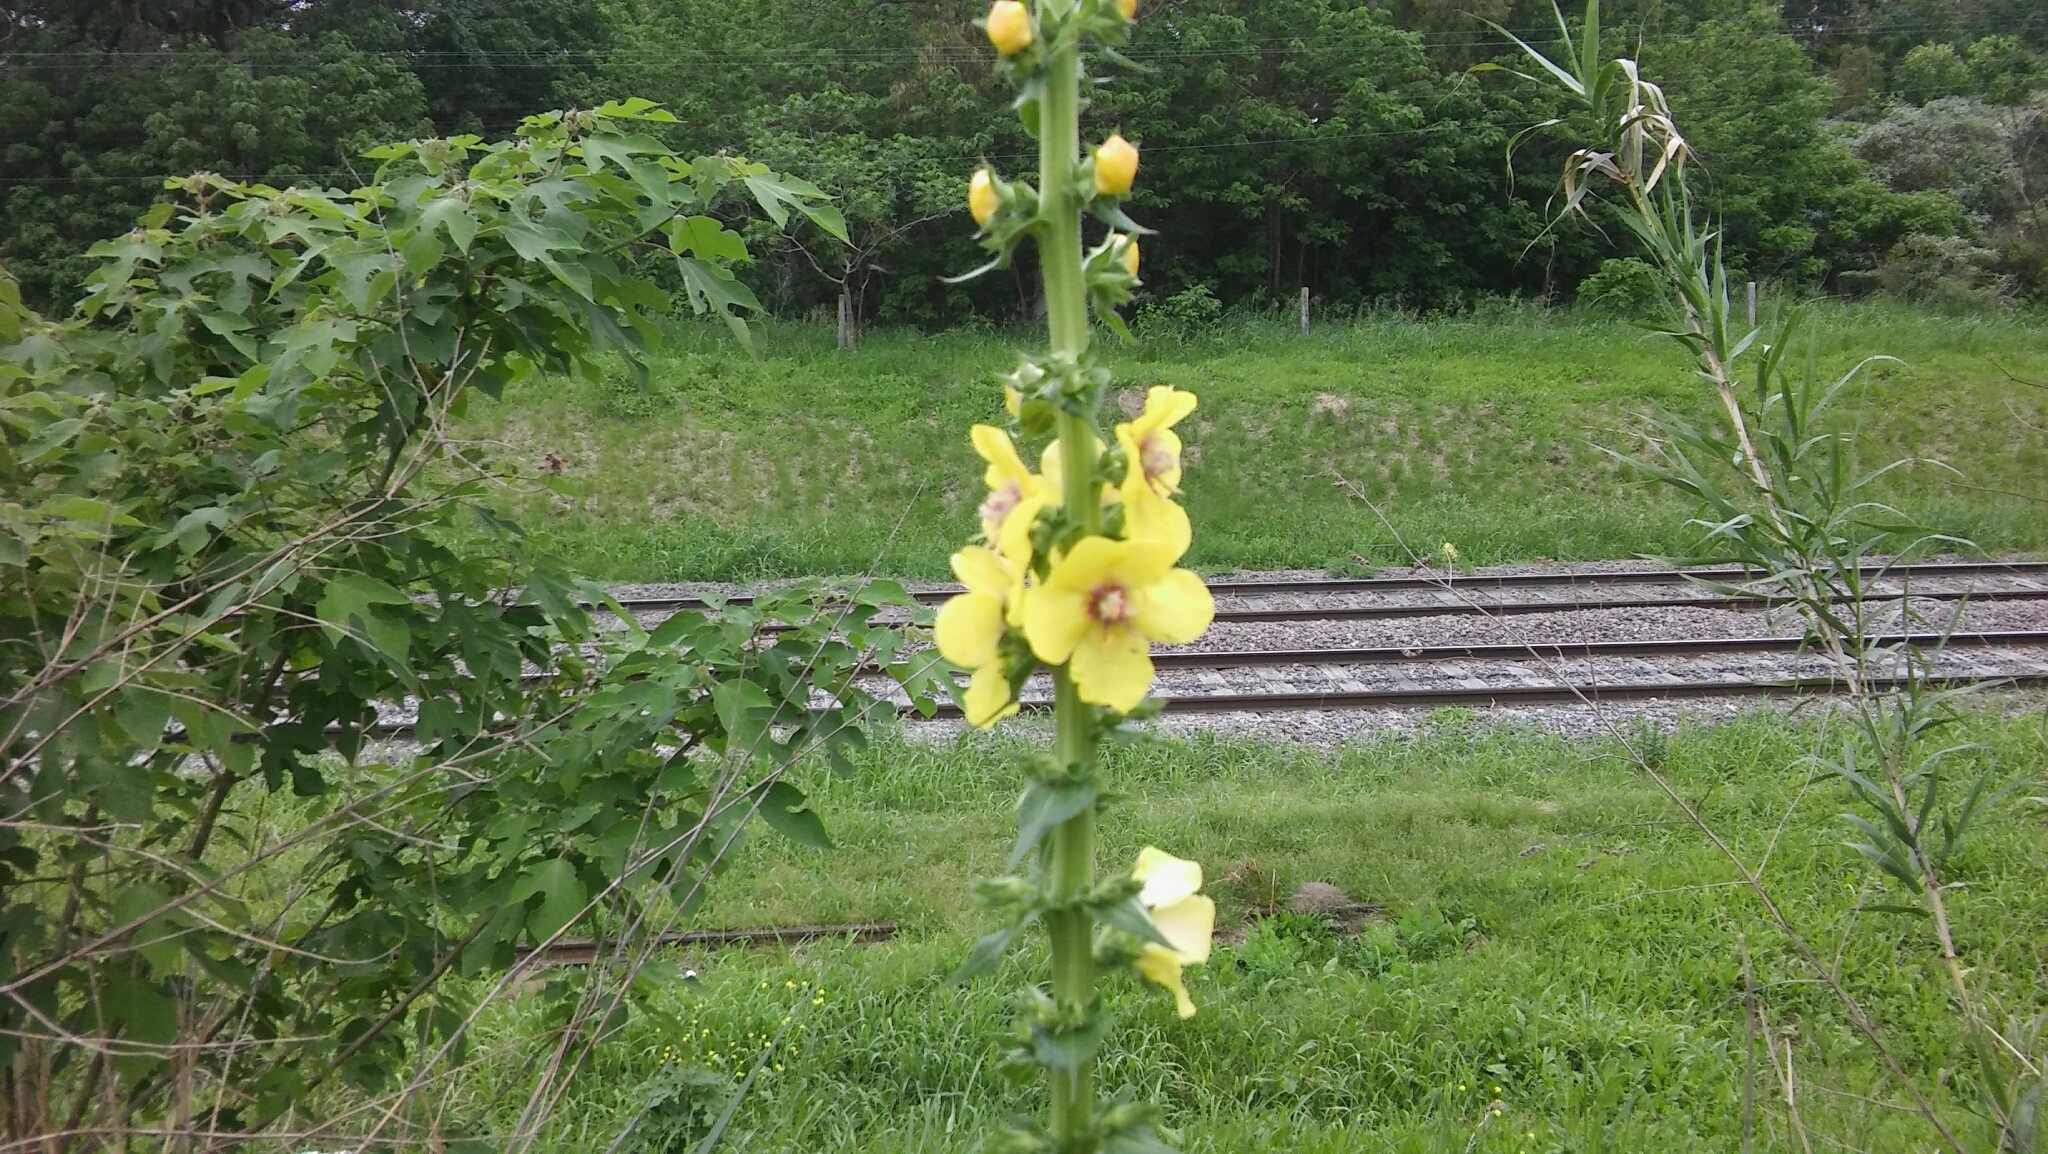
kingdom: Plantae
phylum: Tracheophyta
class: Magnoliopsida
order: Lamiales
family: Scrophulariaceae
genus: Verbascum
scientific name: Verbascum virgatum
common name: Twiggy mullein
